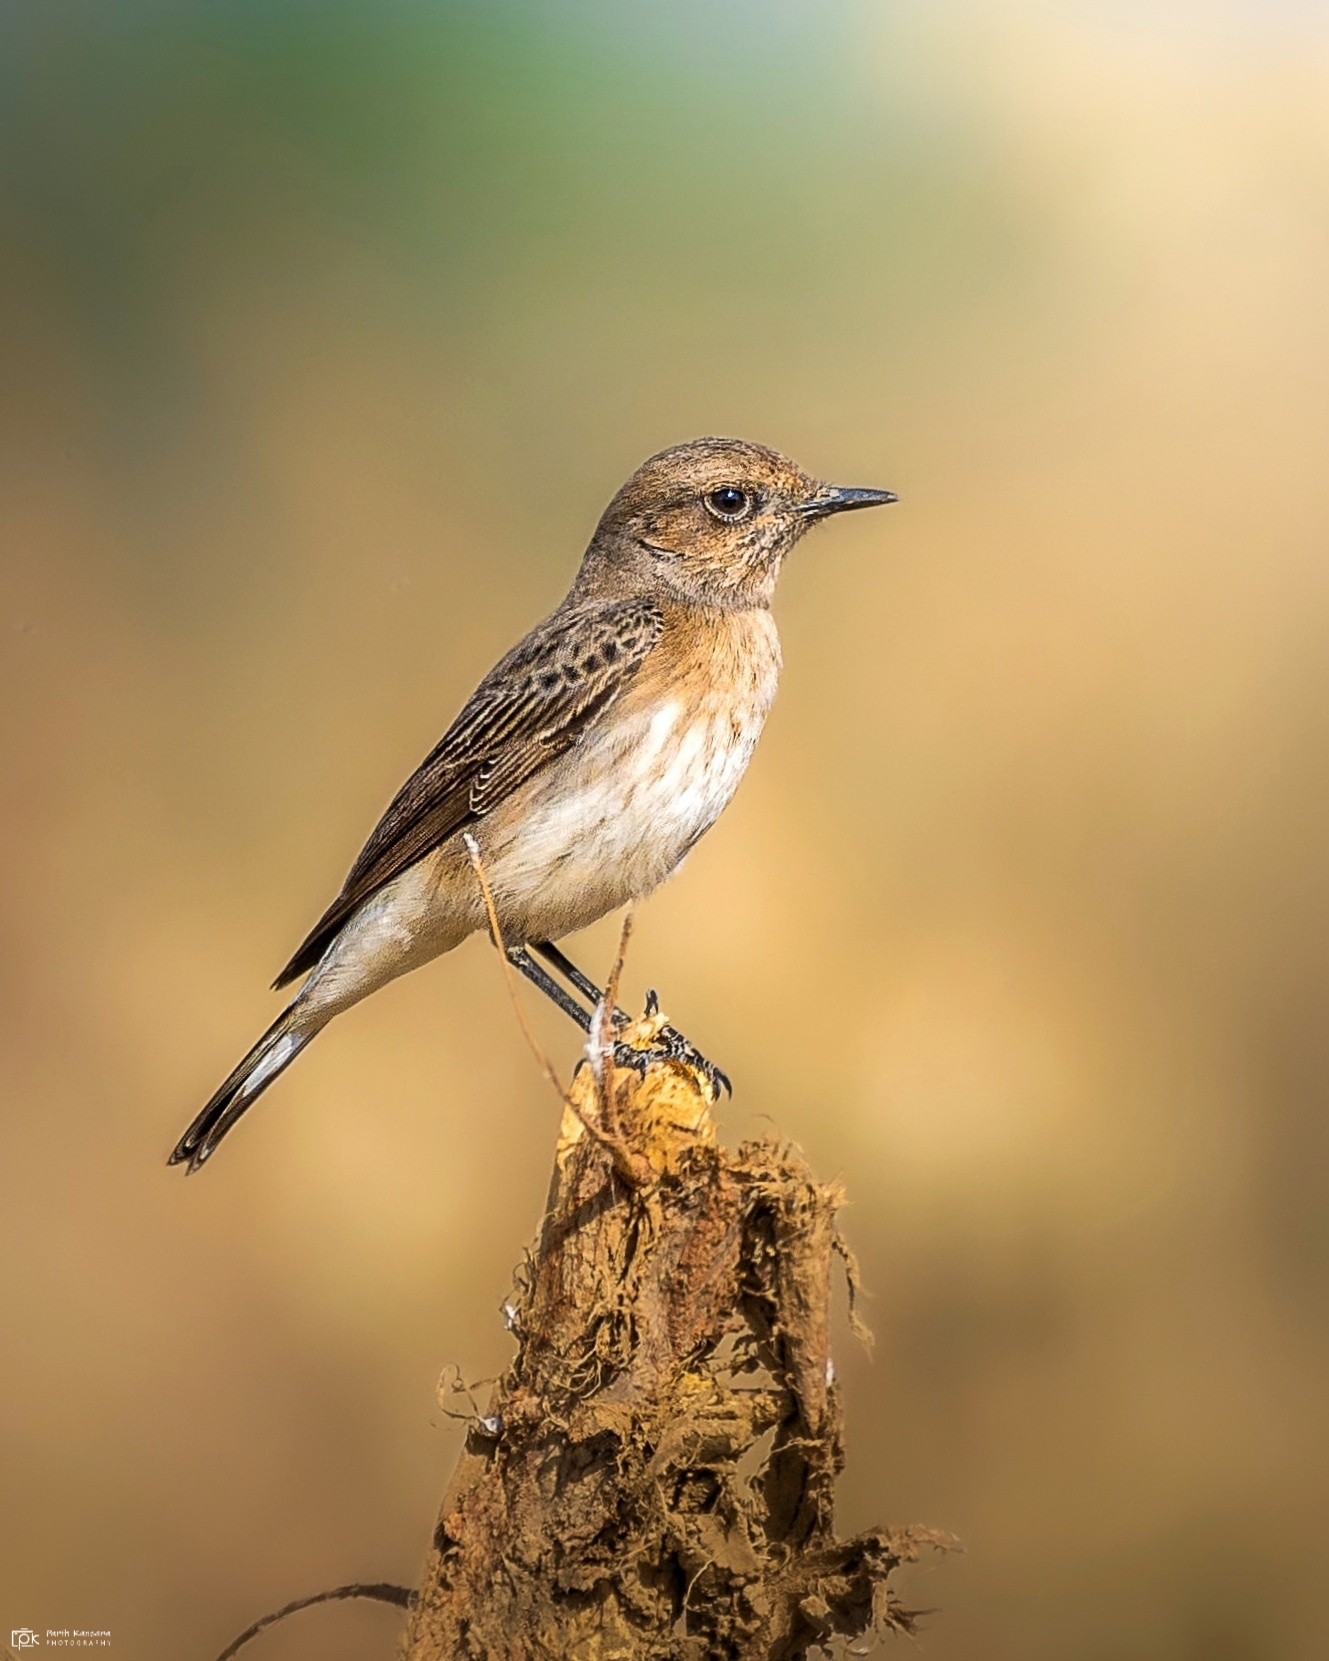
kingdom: Animalia
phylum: Chordata
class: Aves
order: Passeriformes
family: Muscicapidae
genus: Oenanthe
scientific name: Oenanthe picata
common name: Variable wheatear
